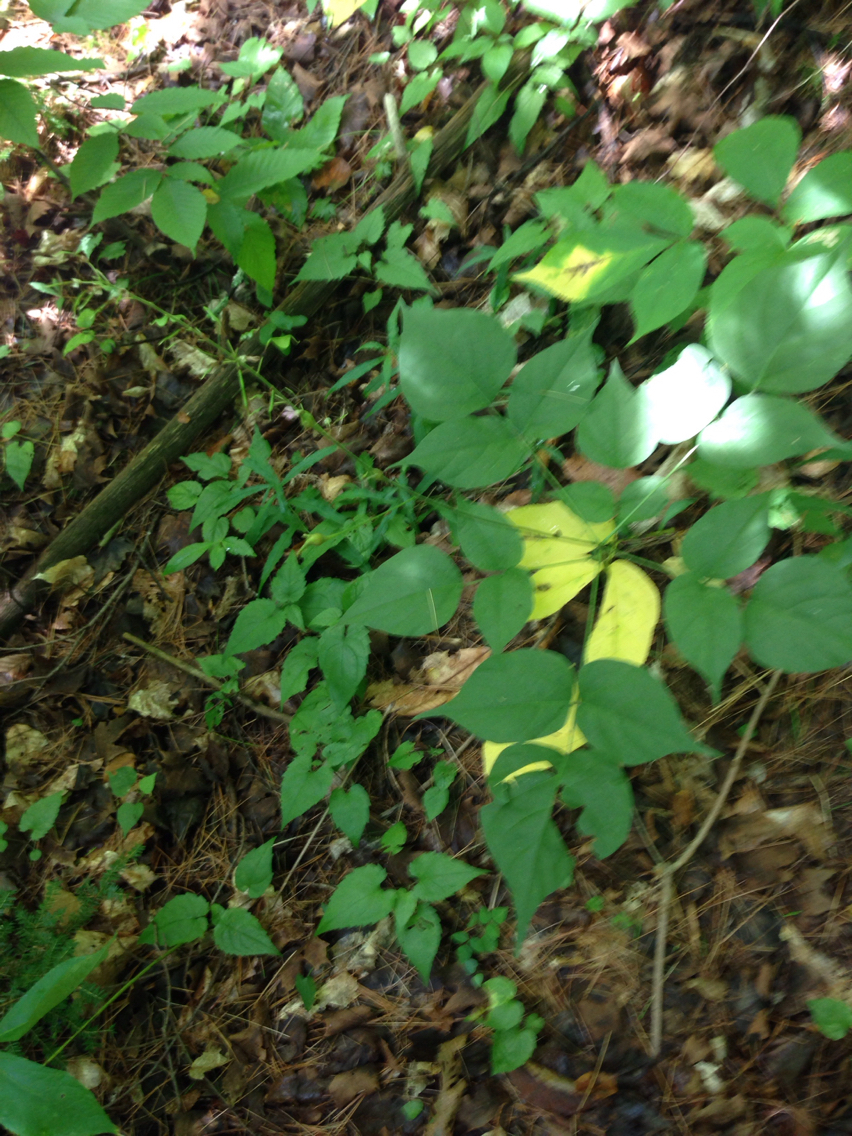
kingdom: Plantae
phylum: Tracheophyta
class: Magnoliopsida
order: Fabales
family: Fabaceae
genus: Hylodesmum
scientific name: Hylodesmum glutinosum
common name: Clustered-leaved tick-trefoil
